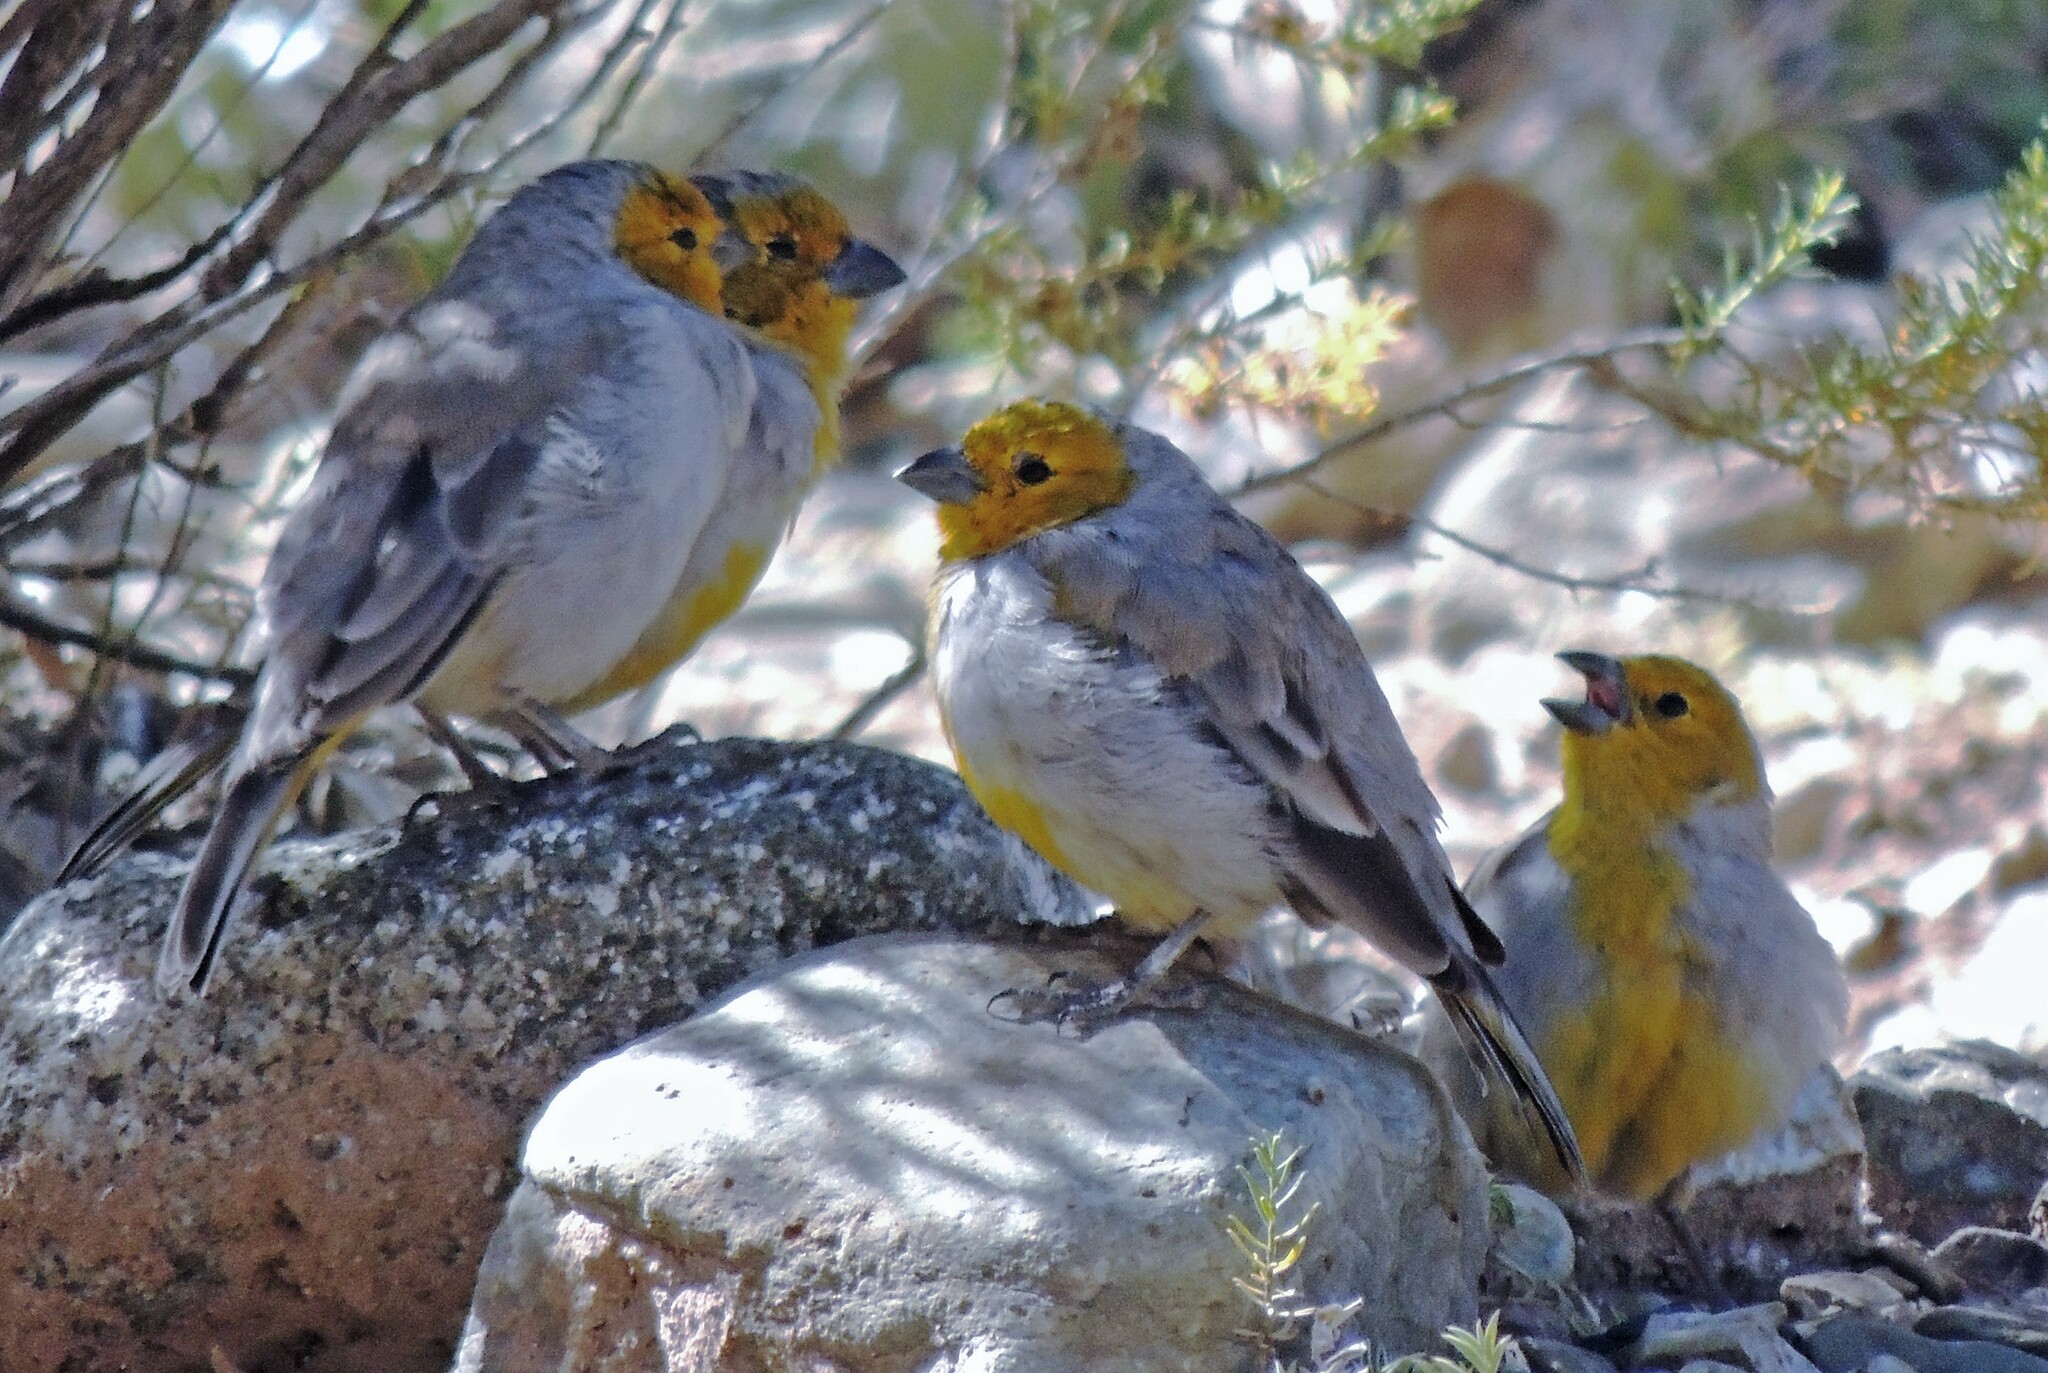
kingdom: Animalia
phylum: Chordata
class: Aves
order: Passeriformes
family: Thraupidae
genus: Sicalis
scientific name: Sicalis luteocephala
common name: Citron-headed yellow finch
